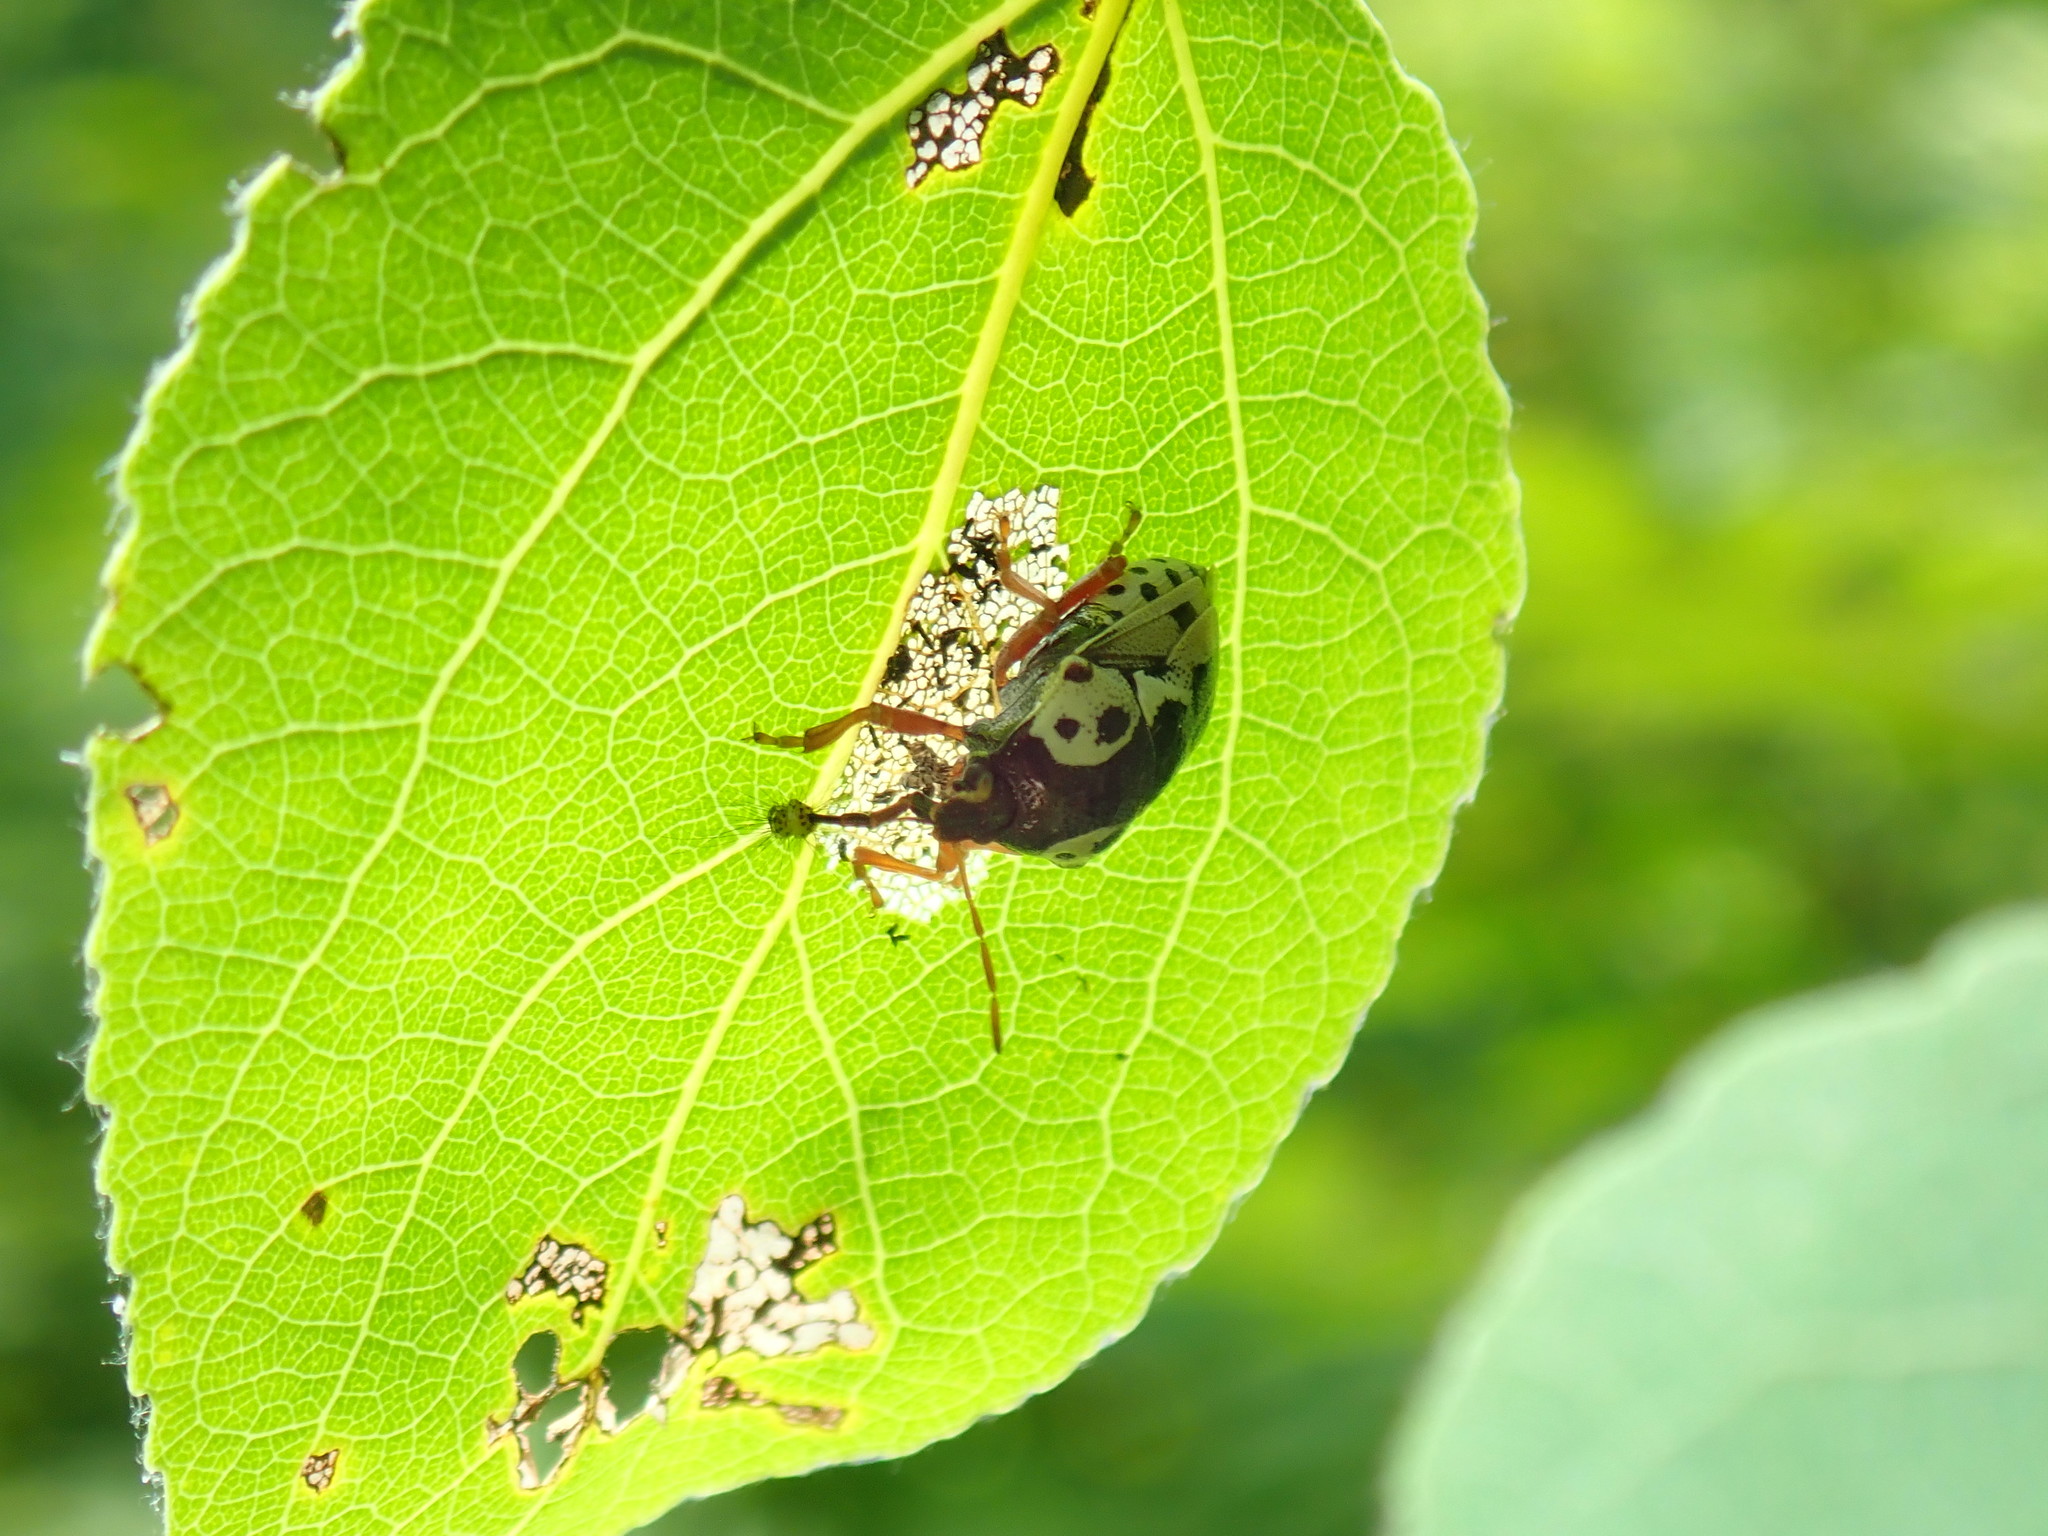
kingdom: Animalia
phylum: Arthropoda
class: Insecta
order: Hemiptera
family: Pentatomidae
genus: Stiretrus
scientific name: Stiretrus anchorago
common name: Anchor stink bug
